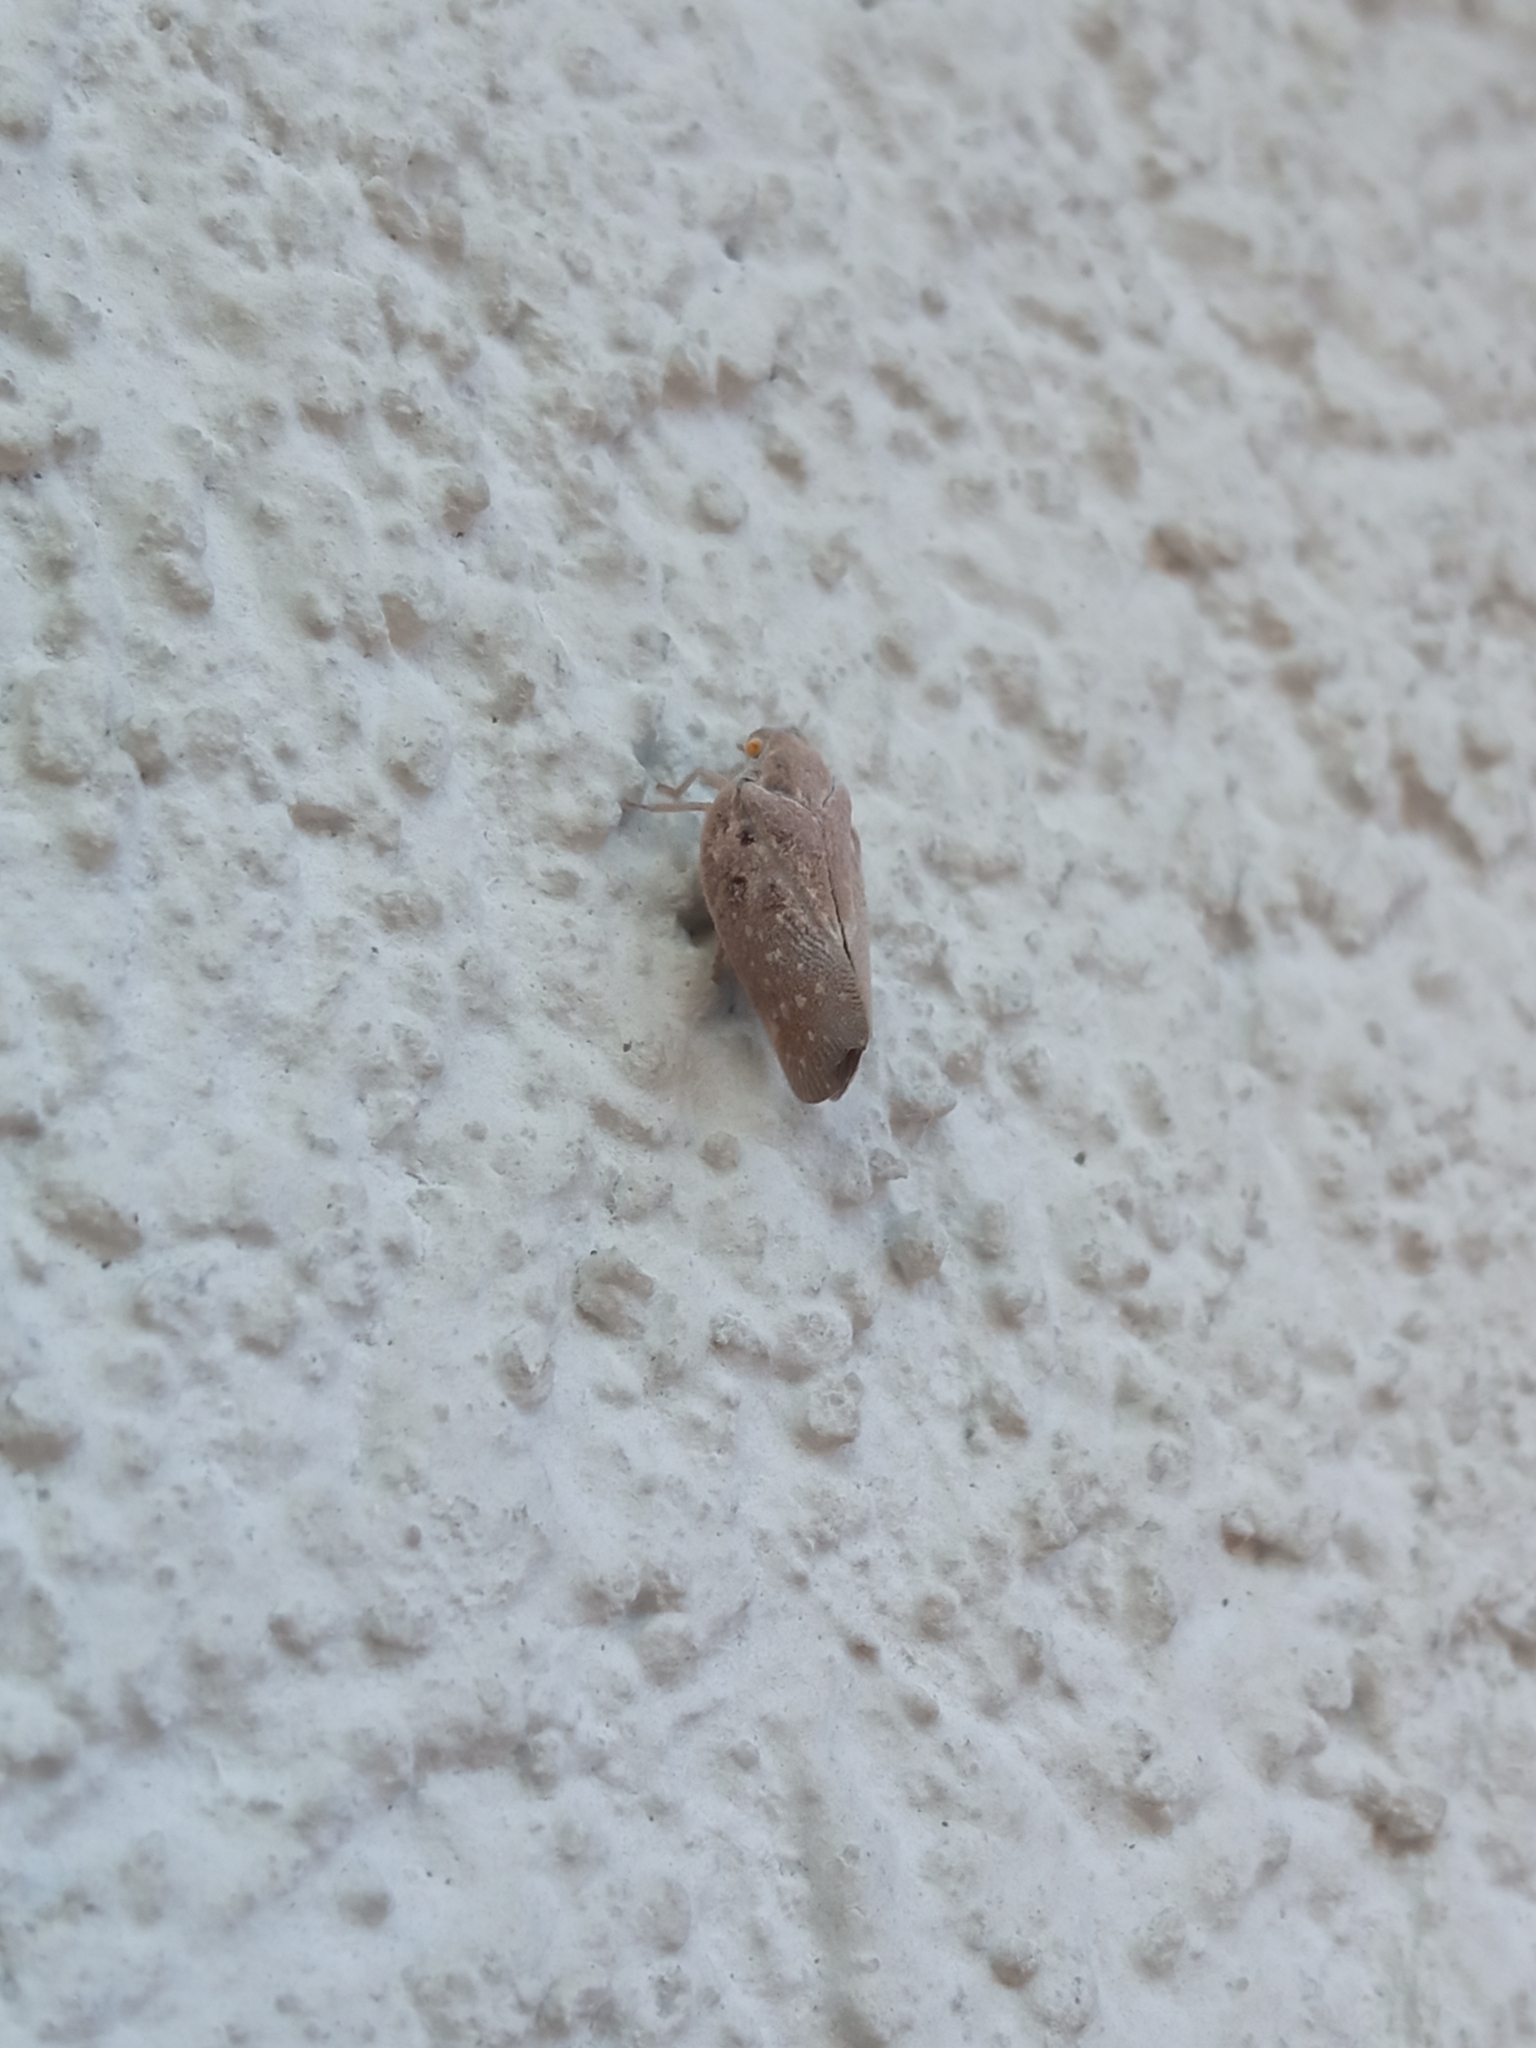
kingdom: Animalia
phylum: Arthropoda
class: Insecta
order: Hemiptera
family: Flatidae
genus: Metcalfa
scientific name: Metcalfa pruinosa
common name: Citrus flatid planthopper
